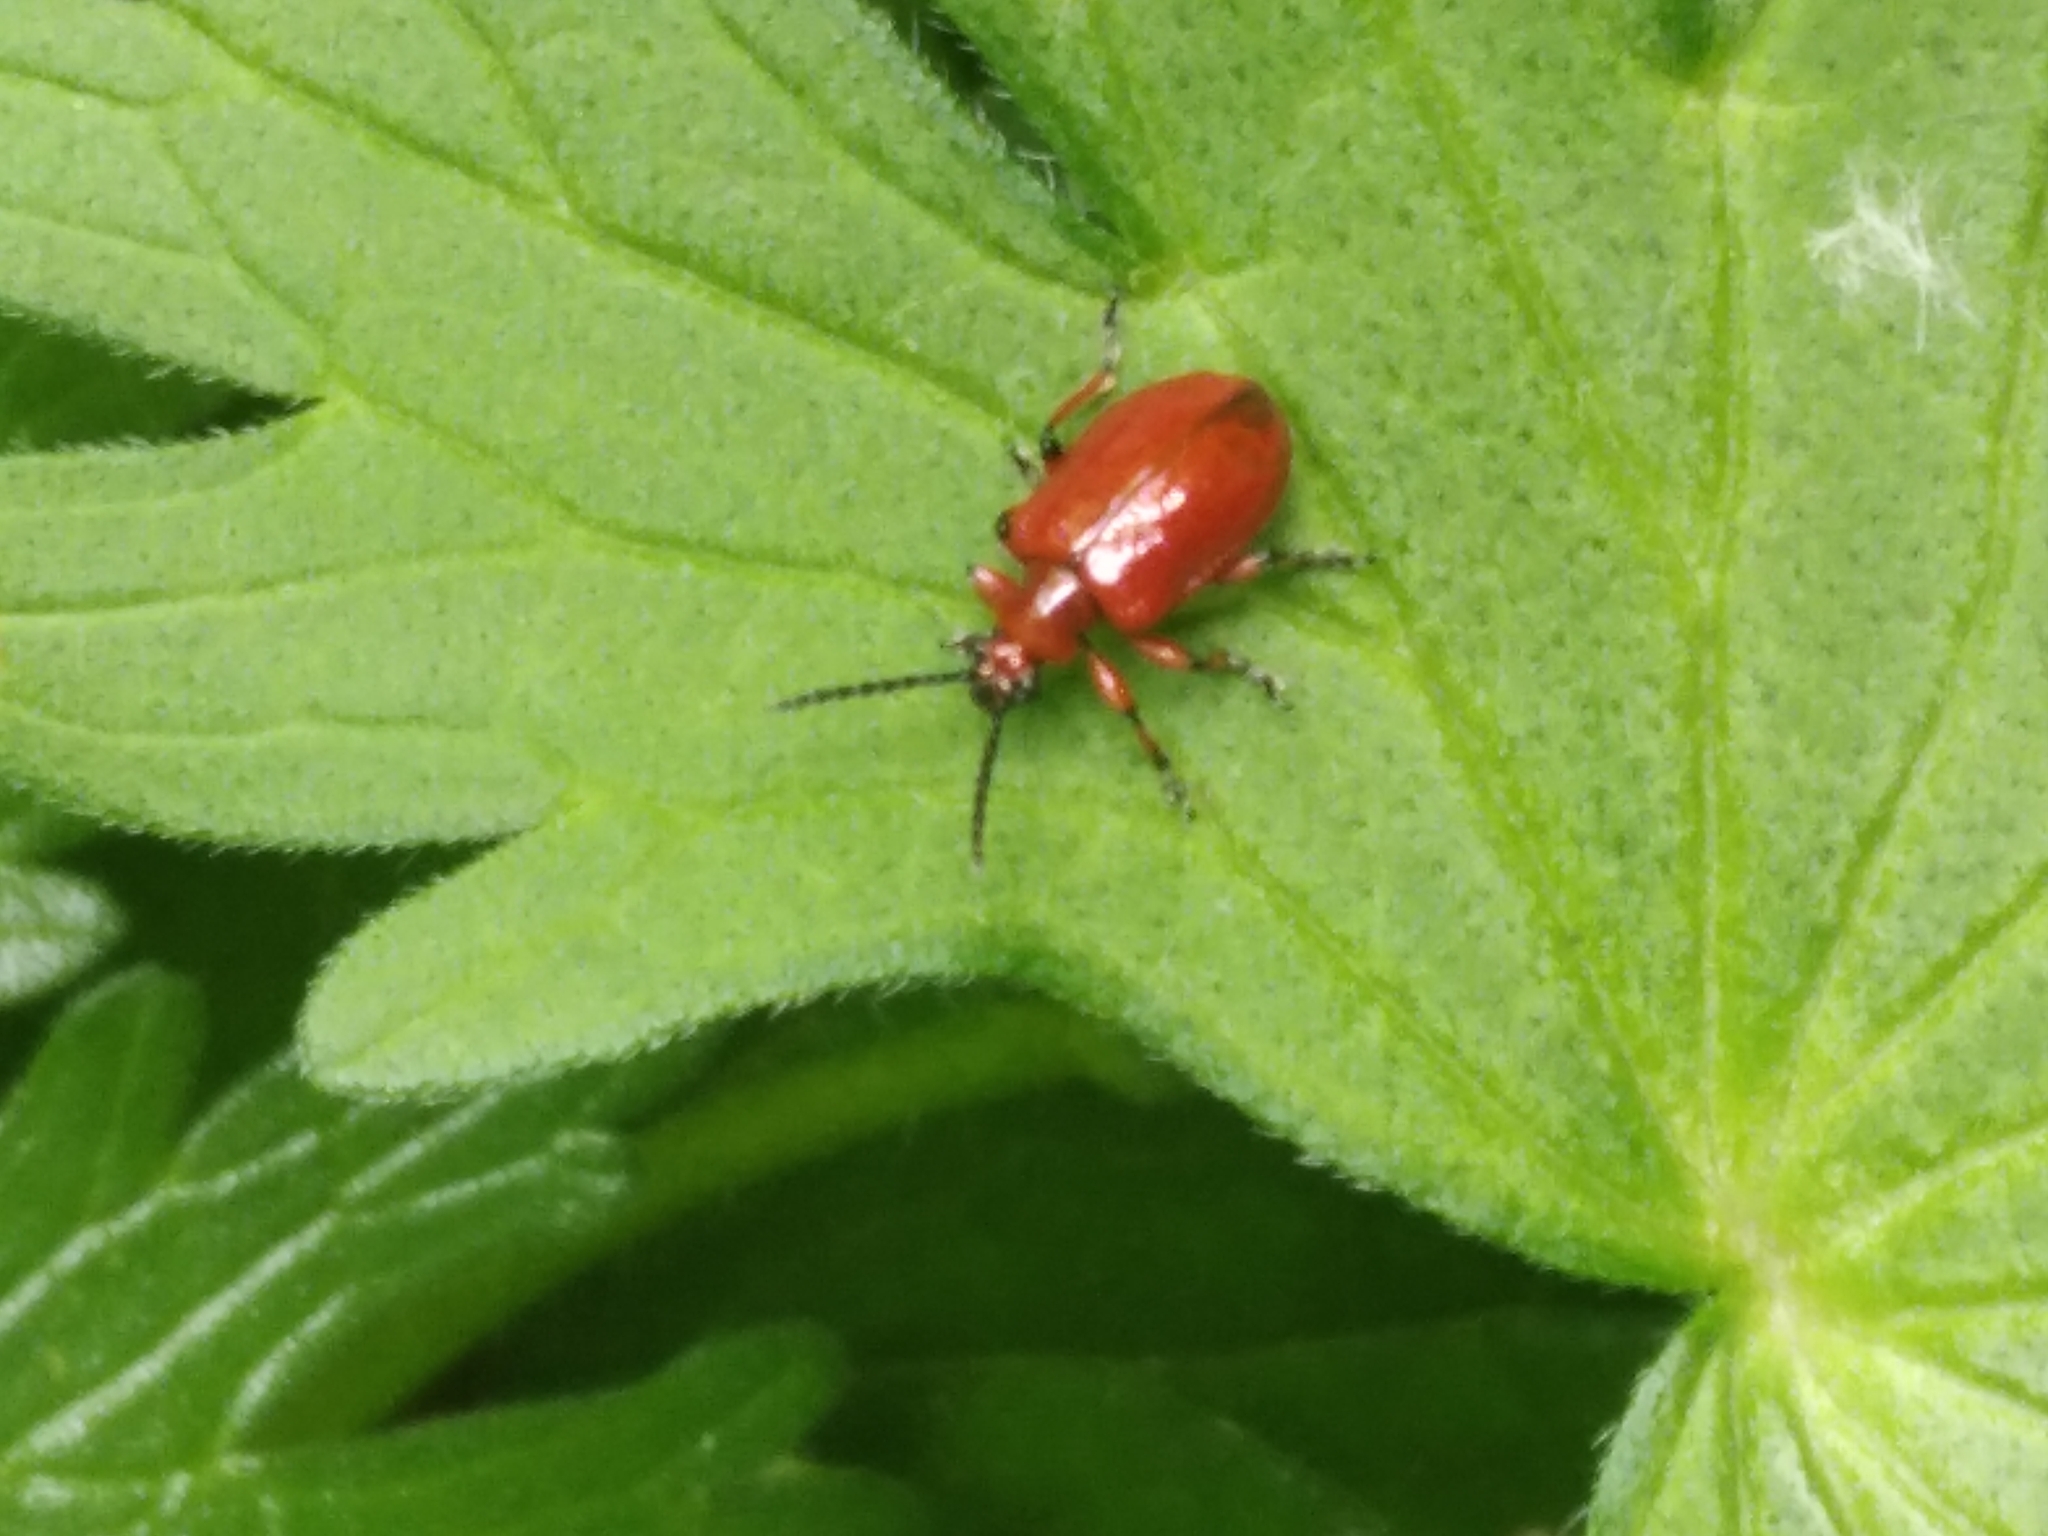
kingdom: Animalia
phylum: Arthropoda
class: Insecta
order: Coleoptera
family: Chrysomelidae
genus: Lilioceris
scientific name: Lilioceris merdigera
